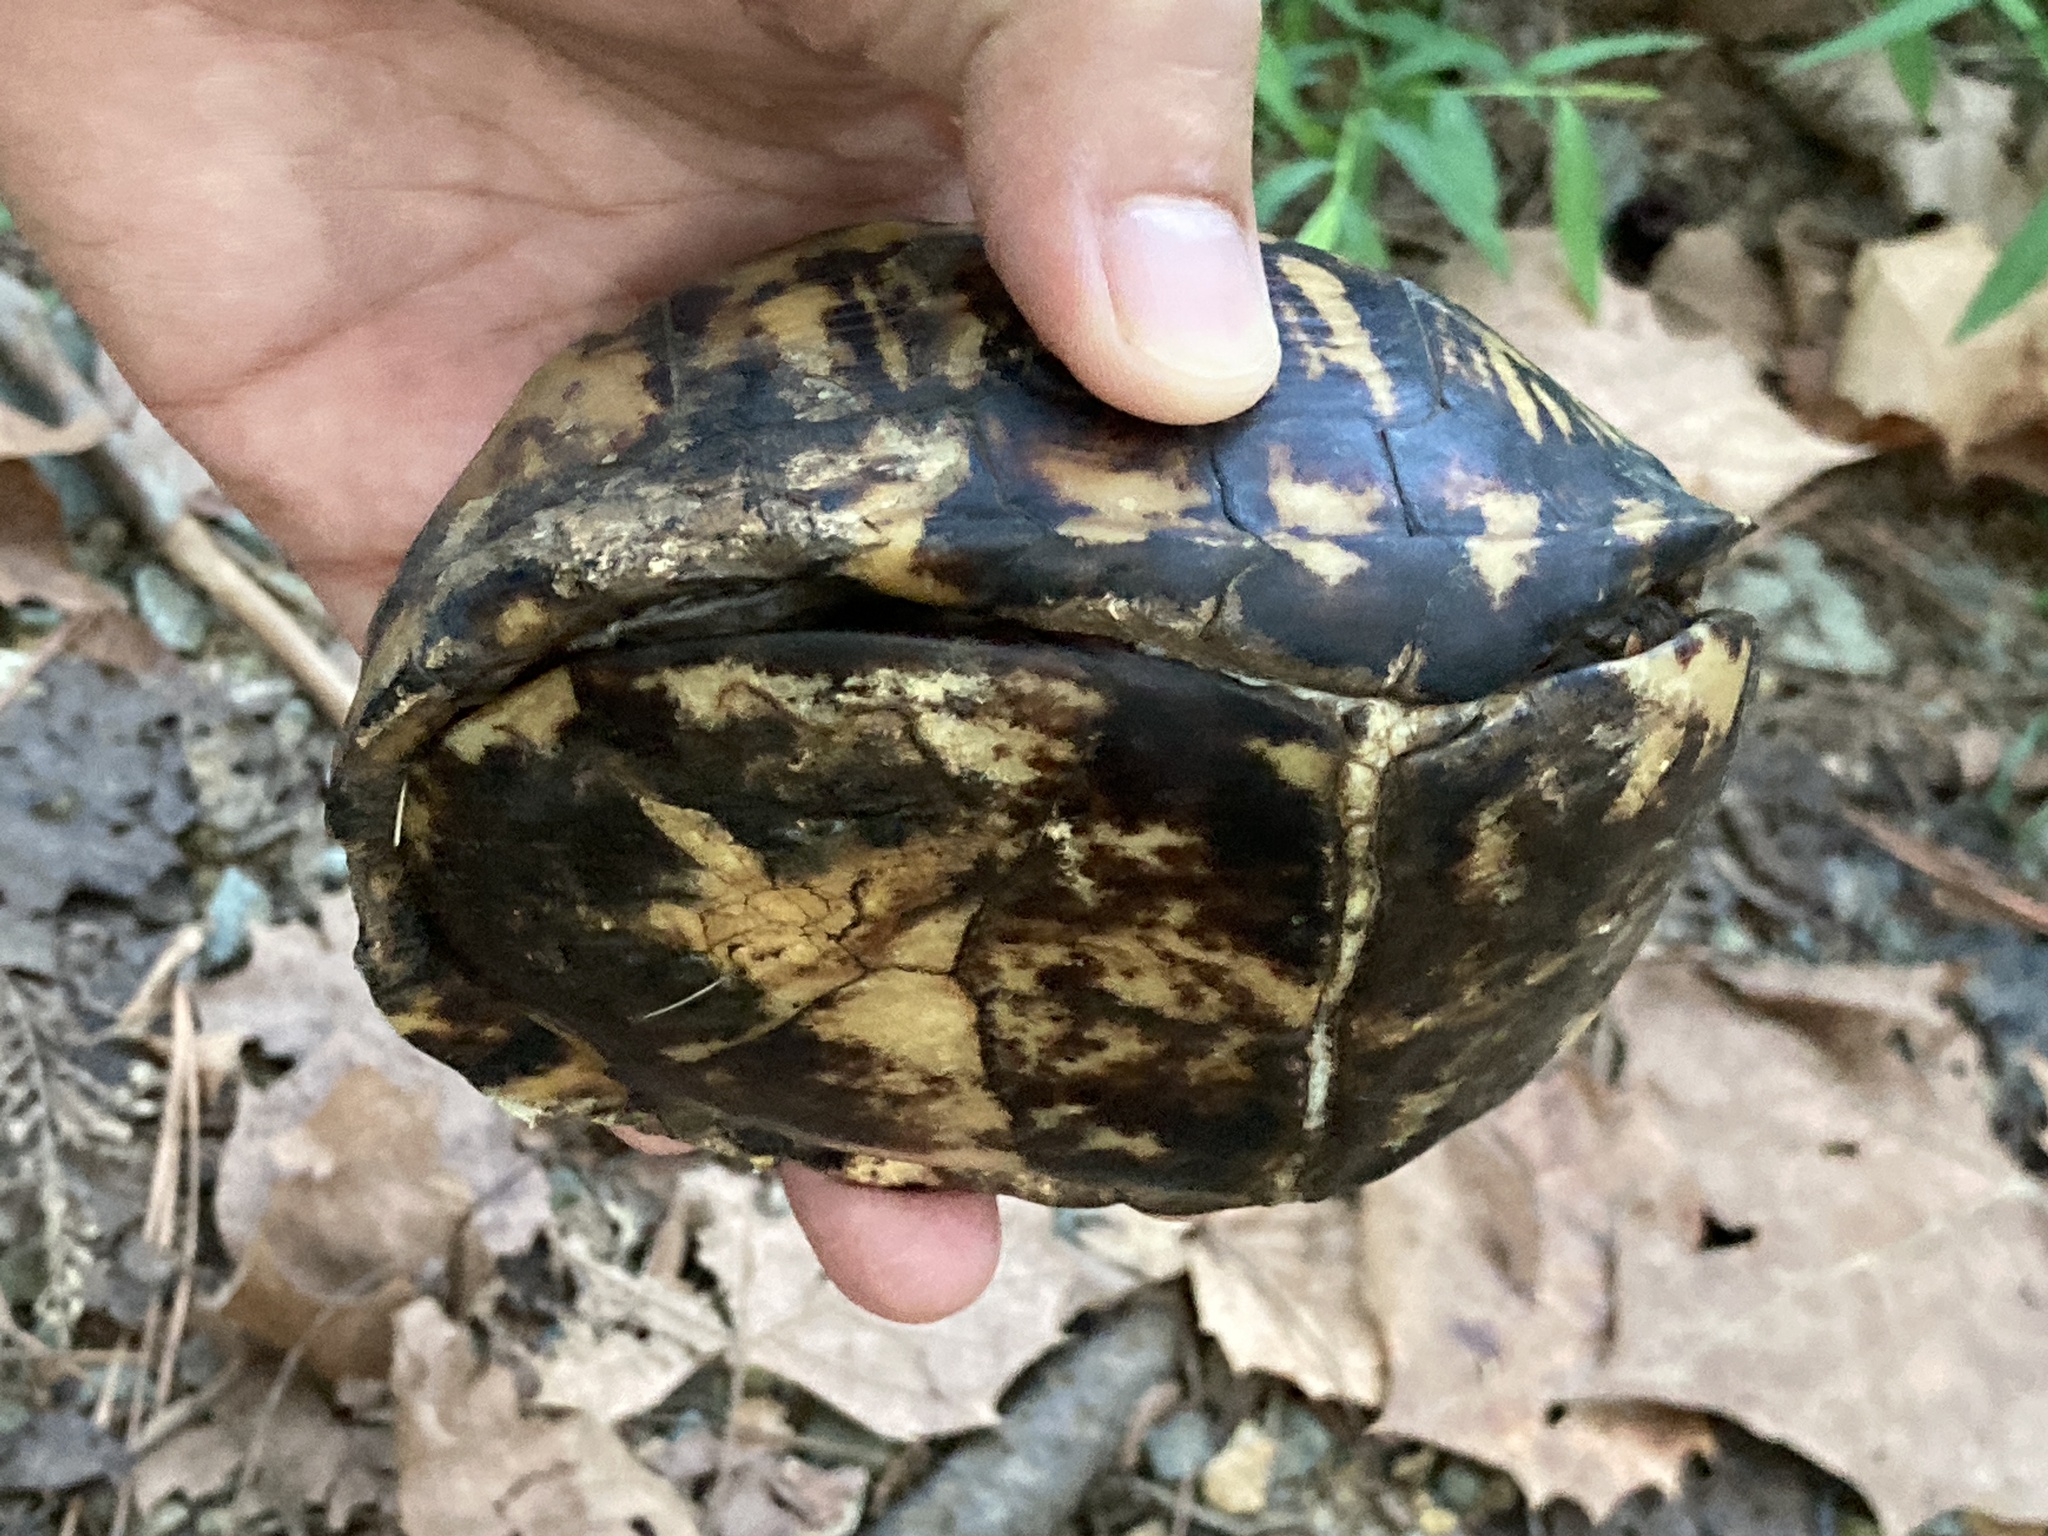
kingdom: Animalia
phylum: Chordata
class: Testudines
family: Emydidae
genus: Terrapene
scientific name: Terrapene carolina
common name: Common box turtle
